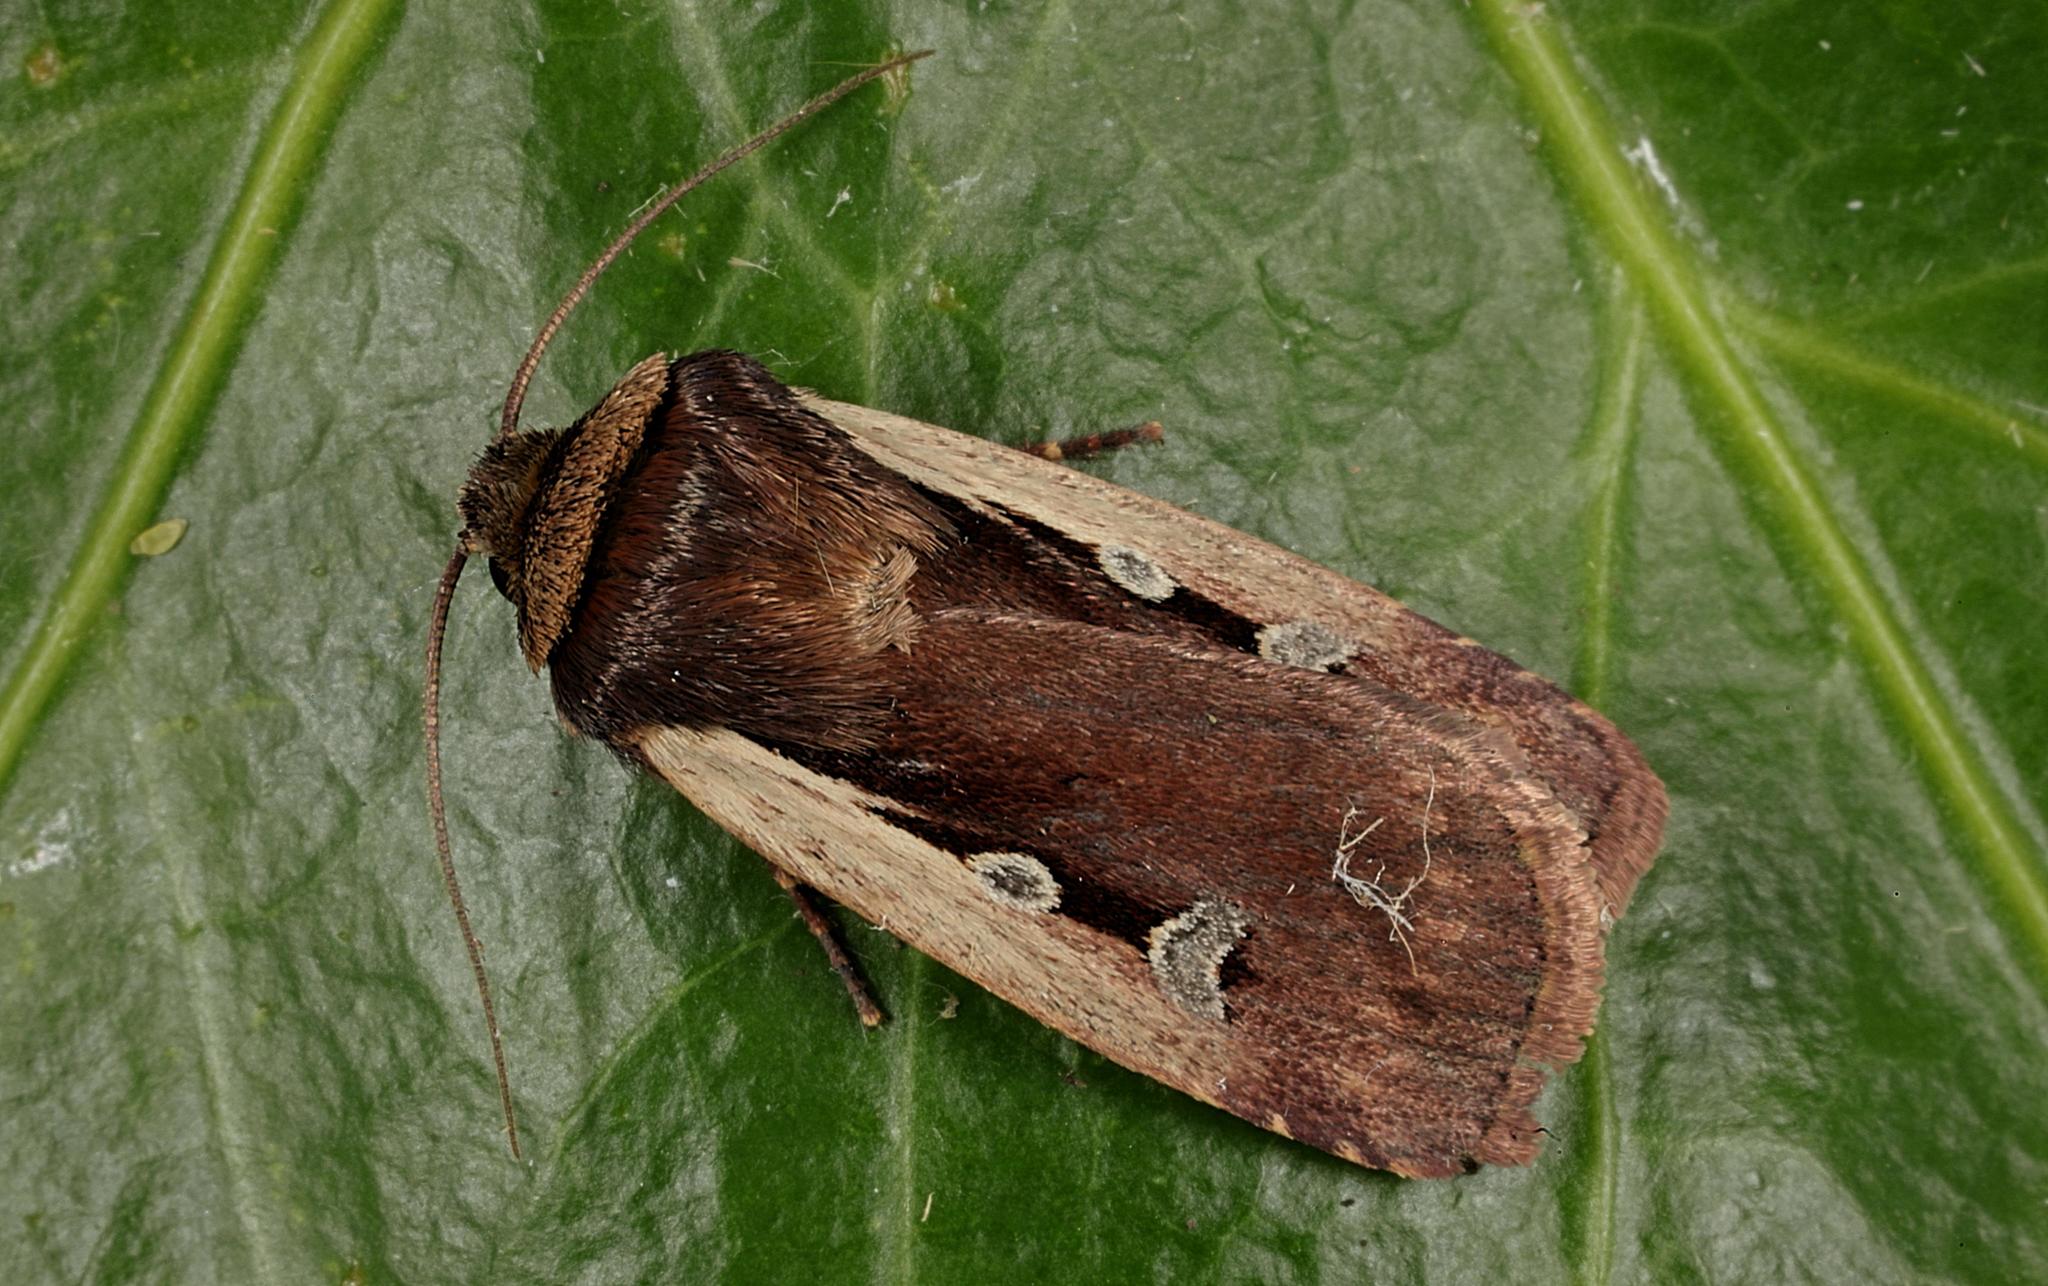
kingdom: Animalia
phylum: Arthropoda
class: Insecta
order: Lepidoptera
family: Noctuidae
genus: Ochropleura
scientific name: Ochropleura plecta
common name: Flame shoulder
